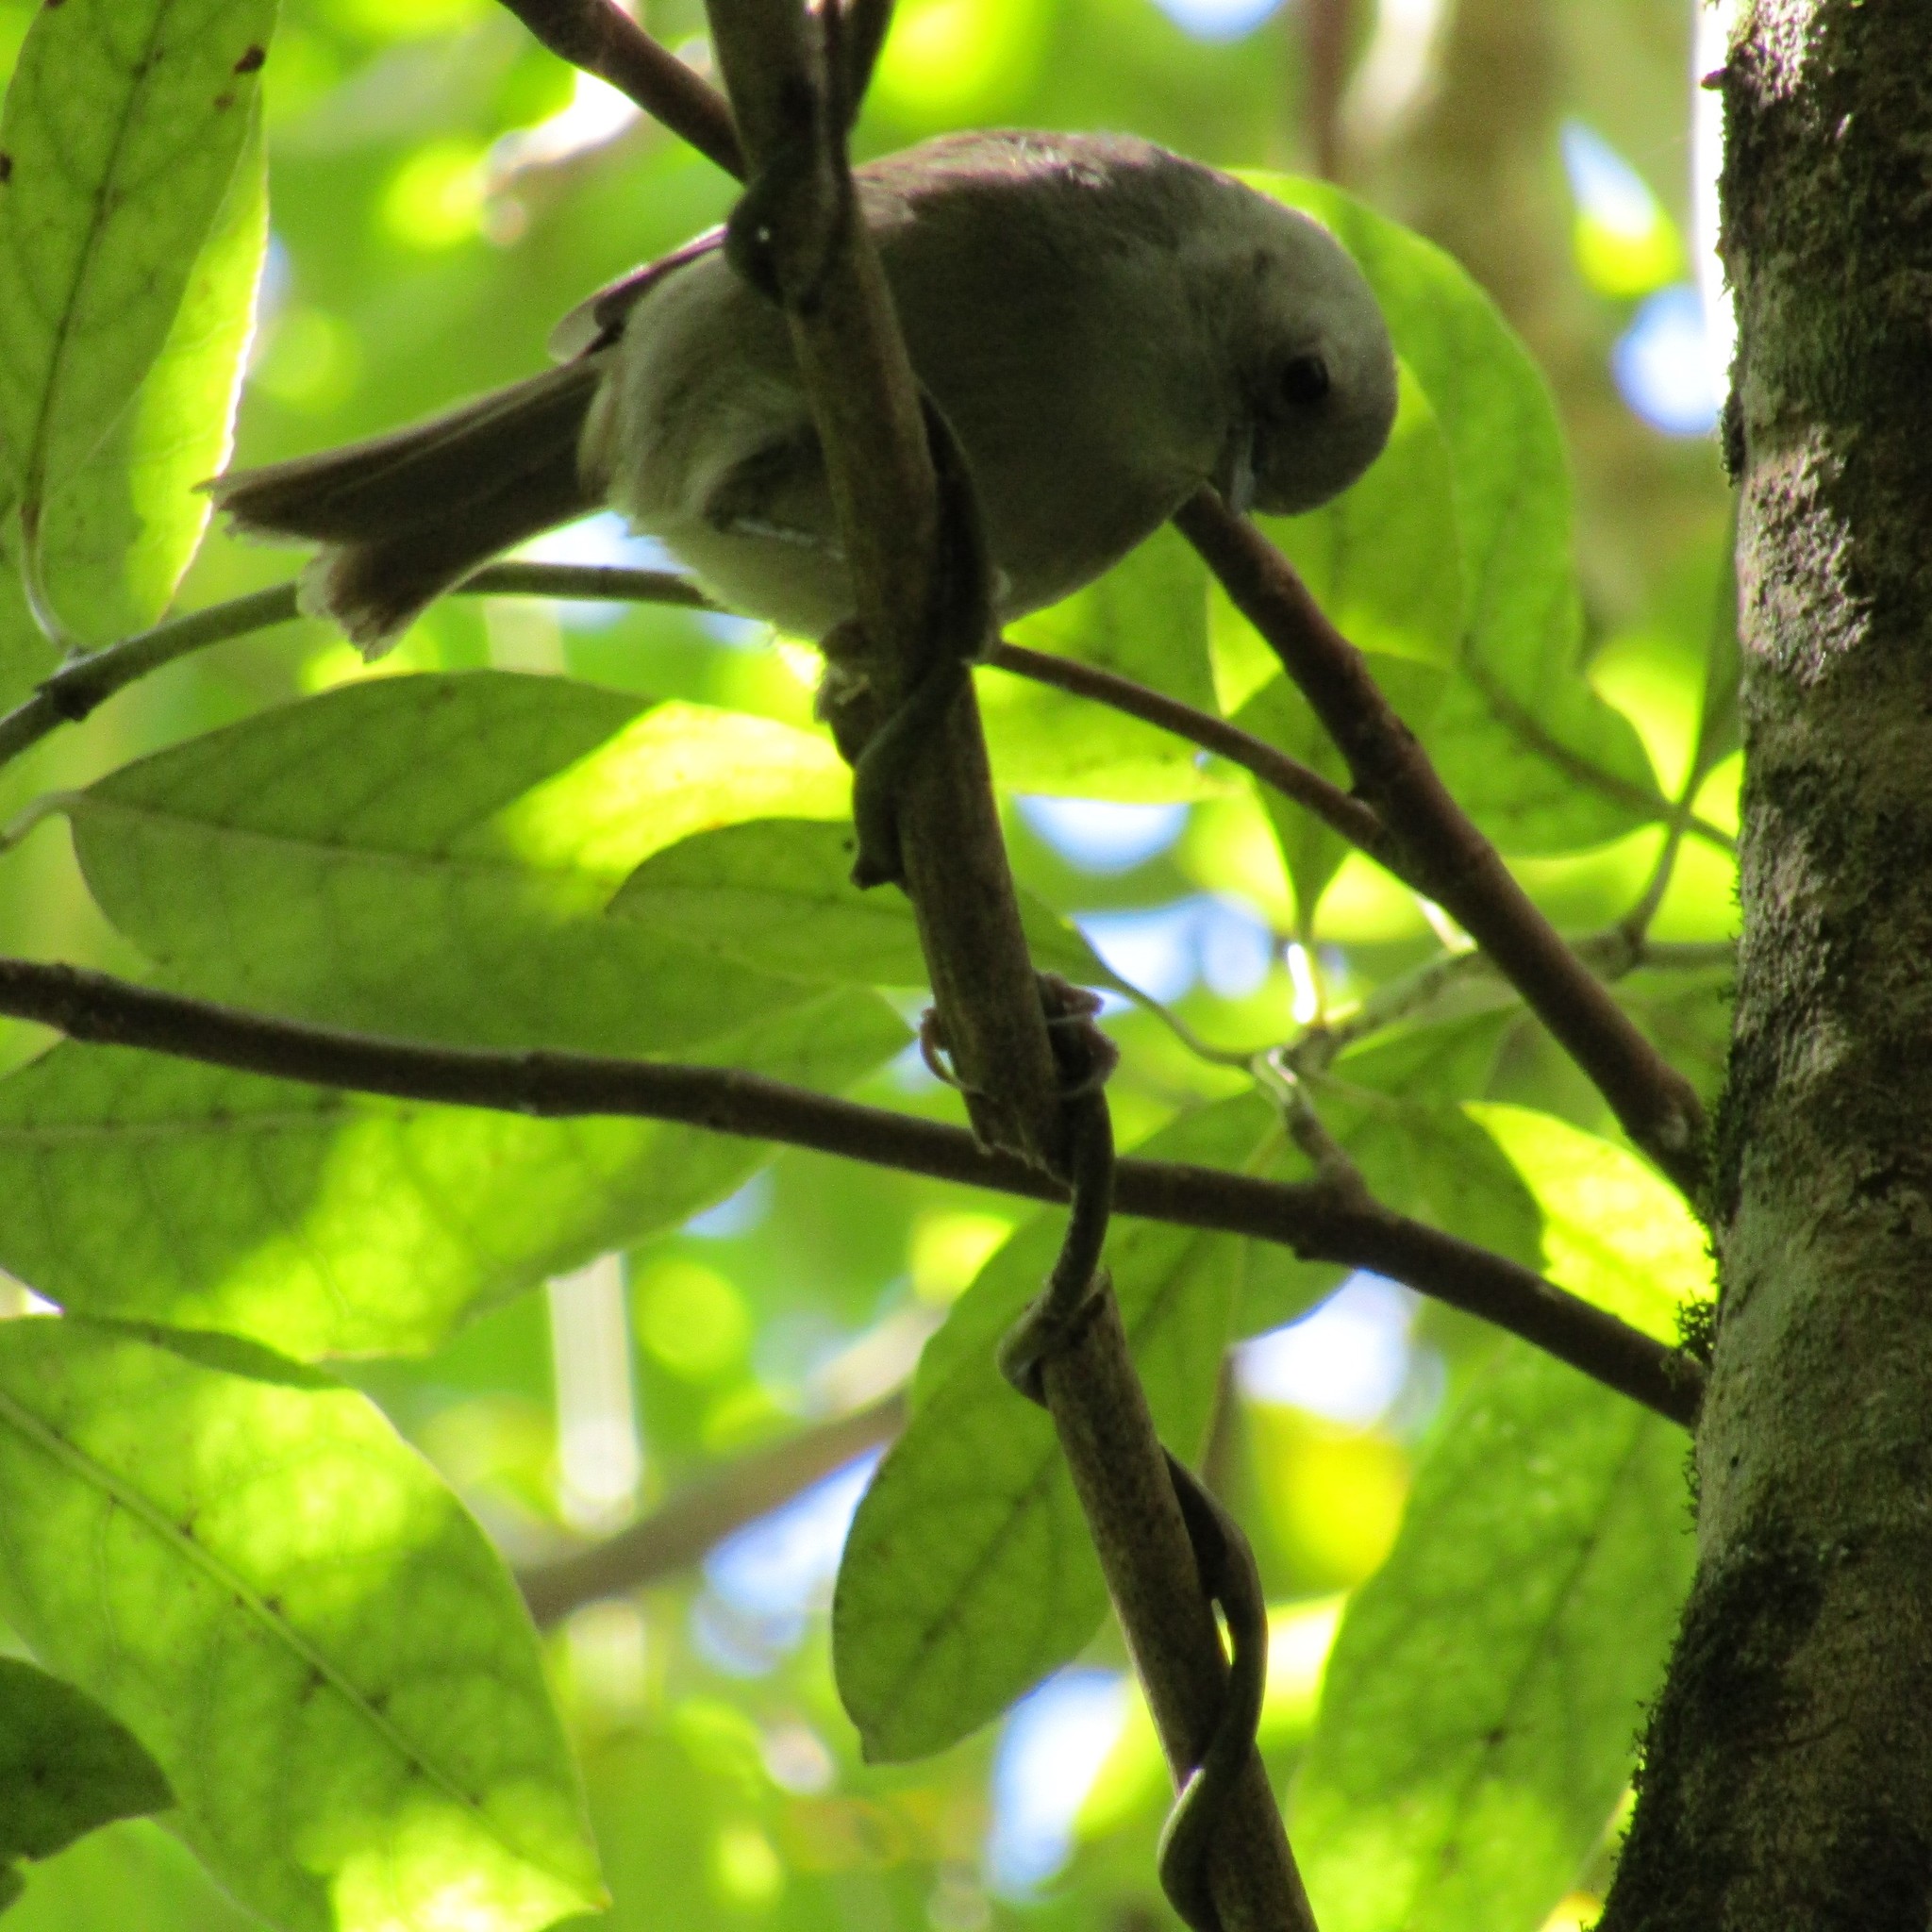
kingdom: Animalia
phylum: Chordata
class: Aves
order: Passeriformes
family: Acanthizidae
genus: Mohoua
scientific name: Mohoua albicilla
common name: Whitehead
